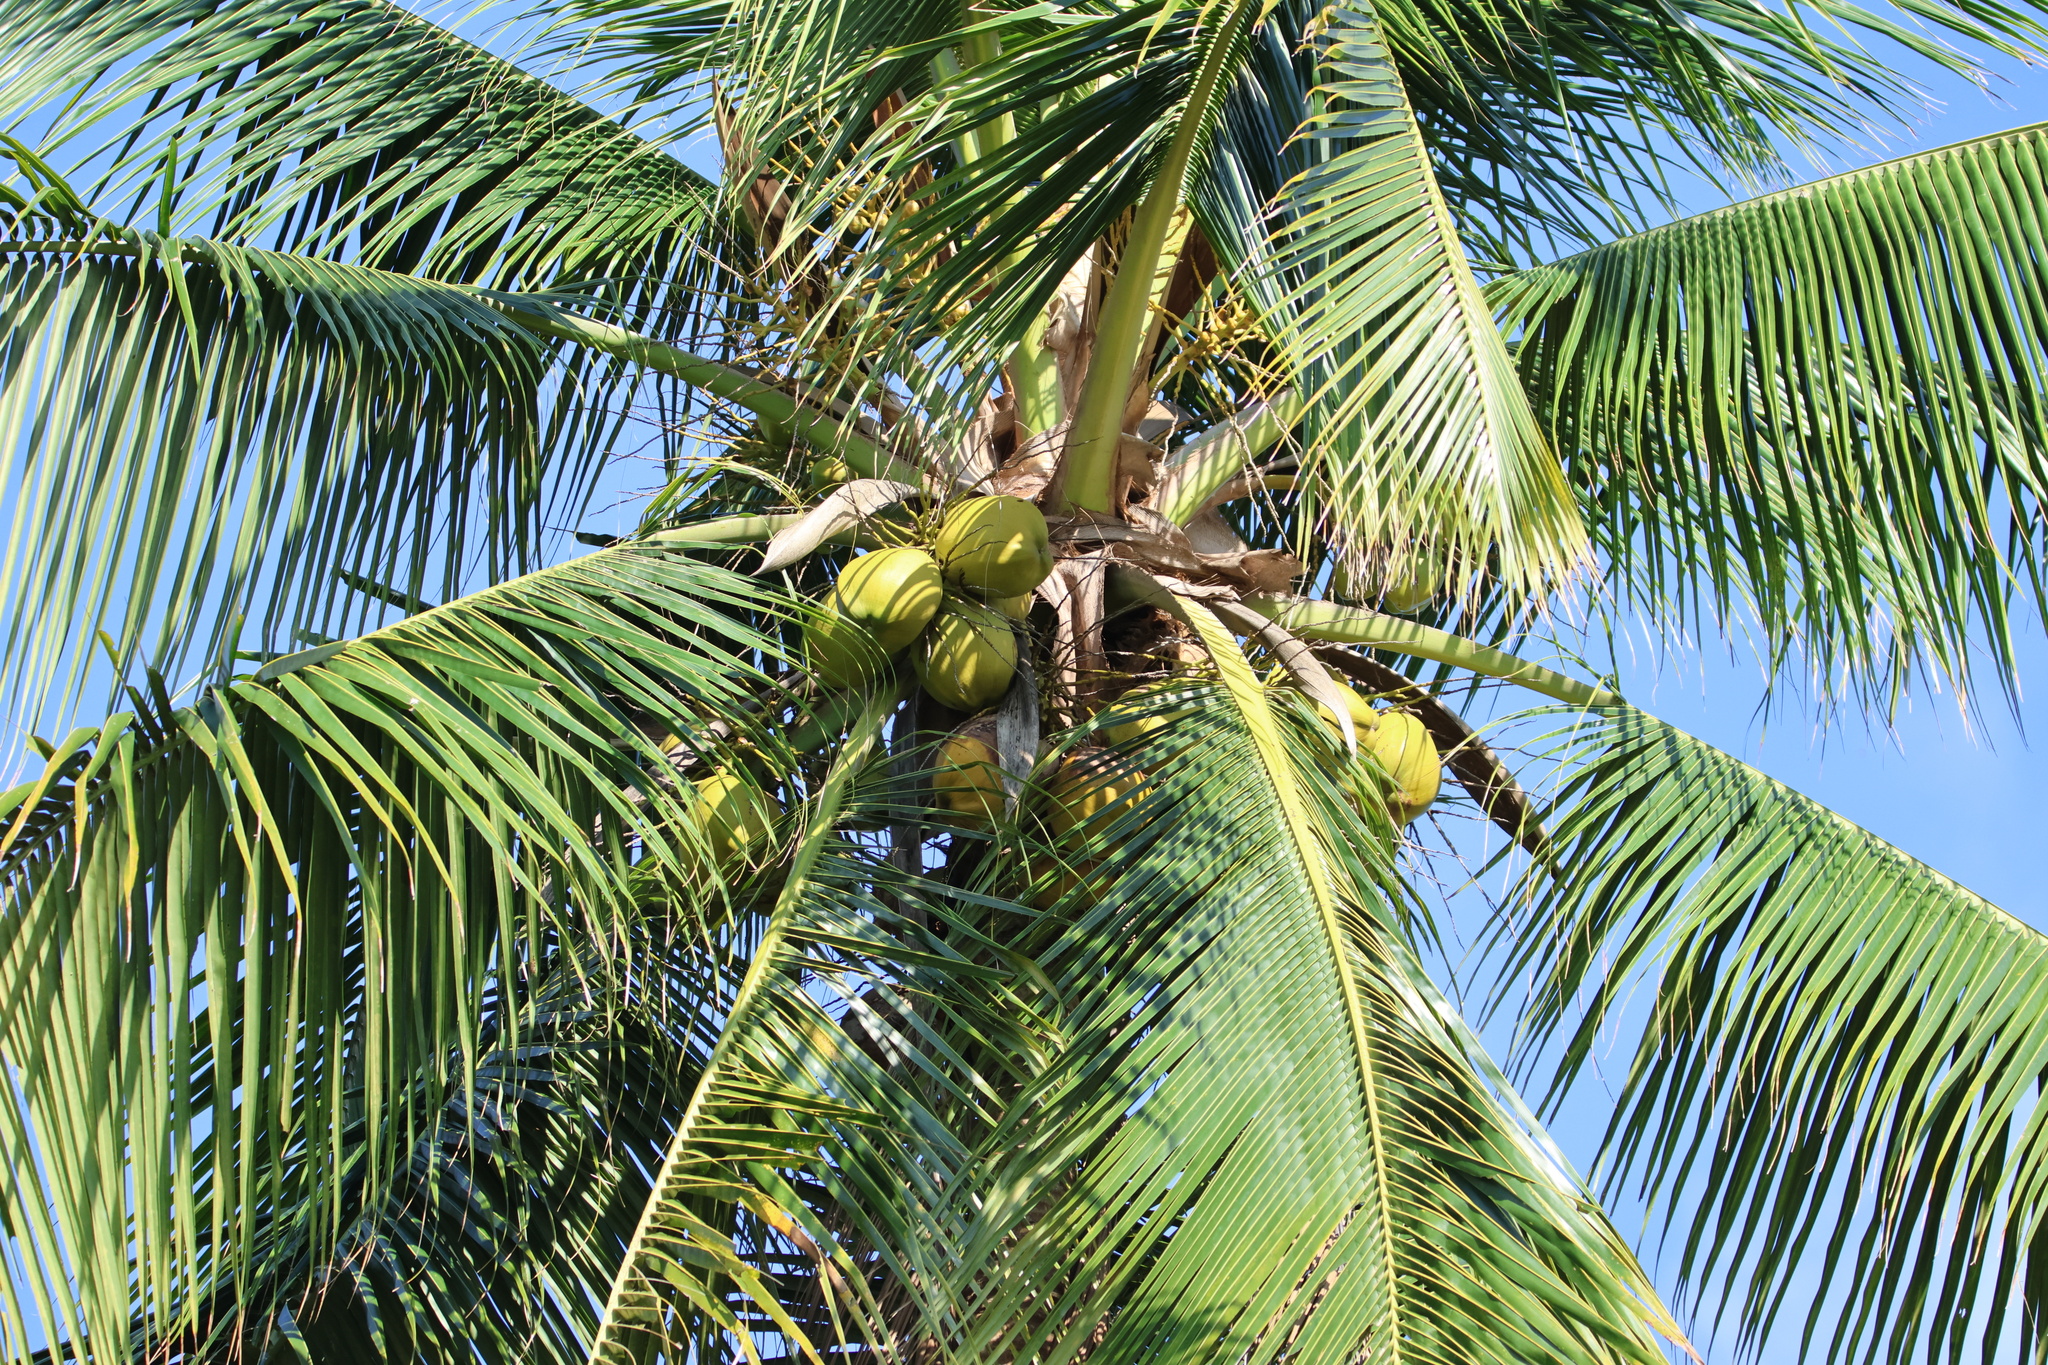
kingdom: Plantae
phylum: Tracheophyta
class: Liliopsida
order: Arecales
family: Arecaceae
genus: Cocos
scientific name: Cocos nucifera
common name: Coconut palm
